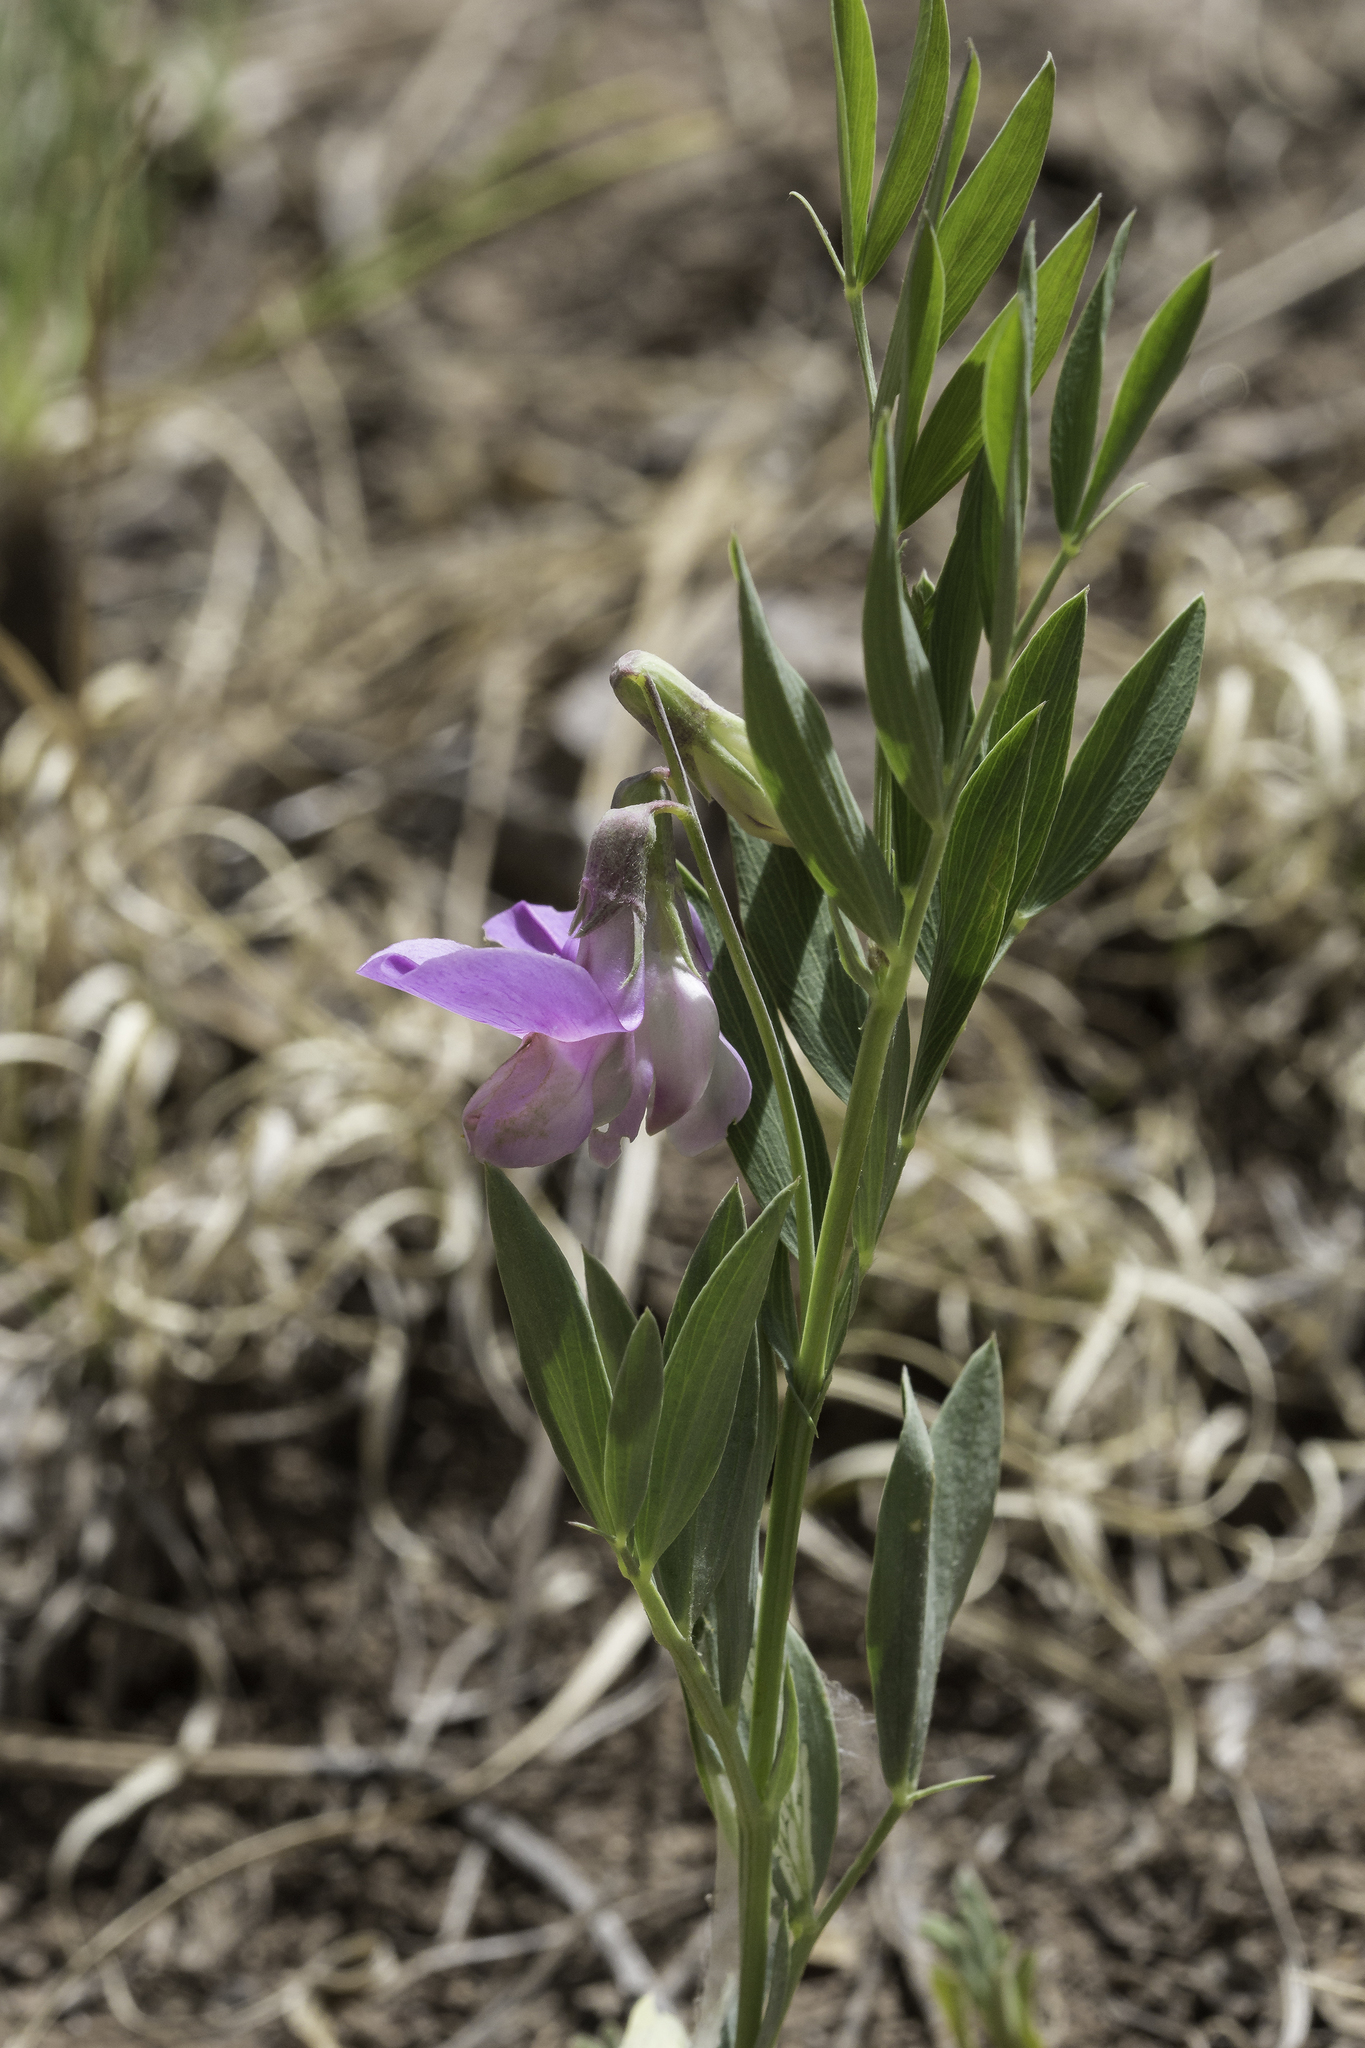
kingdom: Plantae
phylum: Tracheophyta
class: Magnoliopsida
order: Fabales
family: Fabaceae
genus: Lathyrus
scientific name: Lathyrus eucosmus
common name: Semmly vetchling
